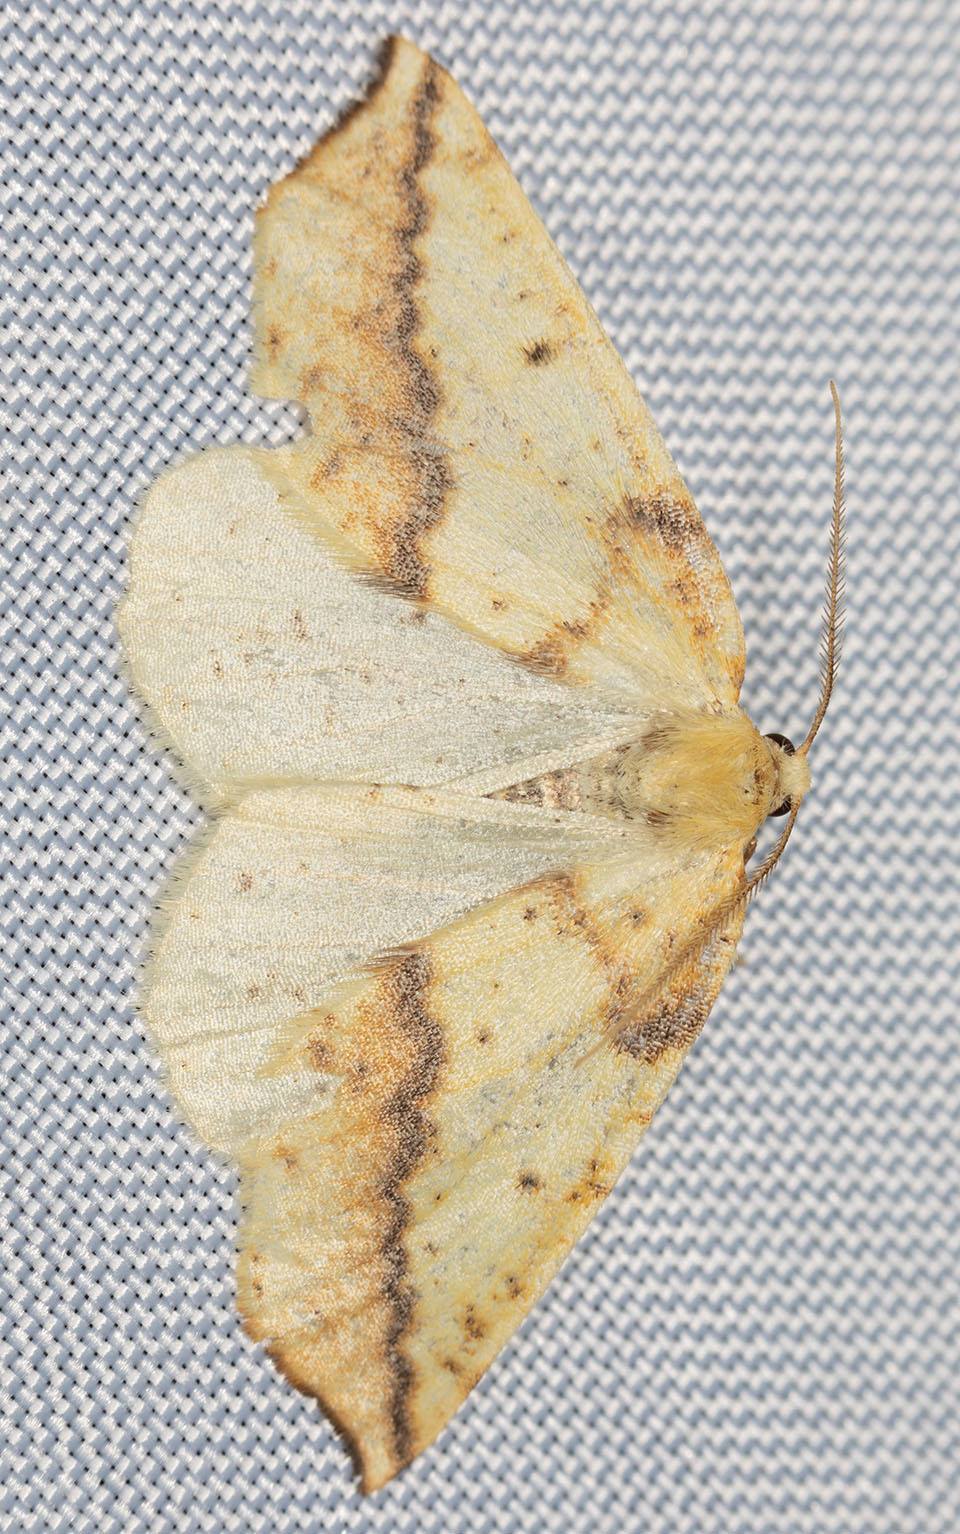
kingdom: Animalia
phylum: Arthropoda
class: Insecta
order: Lepidoptera
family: Geometridae
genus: Neoterpes
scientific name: Neoterpes edwardsata
